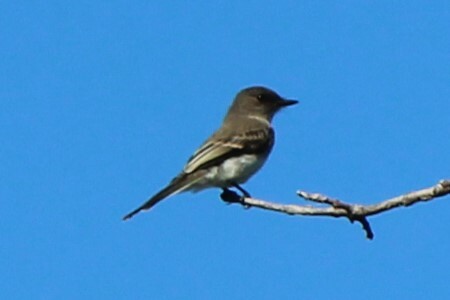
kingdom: Animalia
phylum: Chordata
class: Aves
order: Passeriformes
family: Tyrannidae
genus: Sayornis
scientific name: Sayornis phoebe
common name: Eastern phoebe
